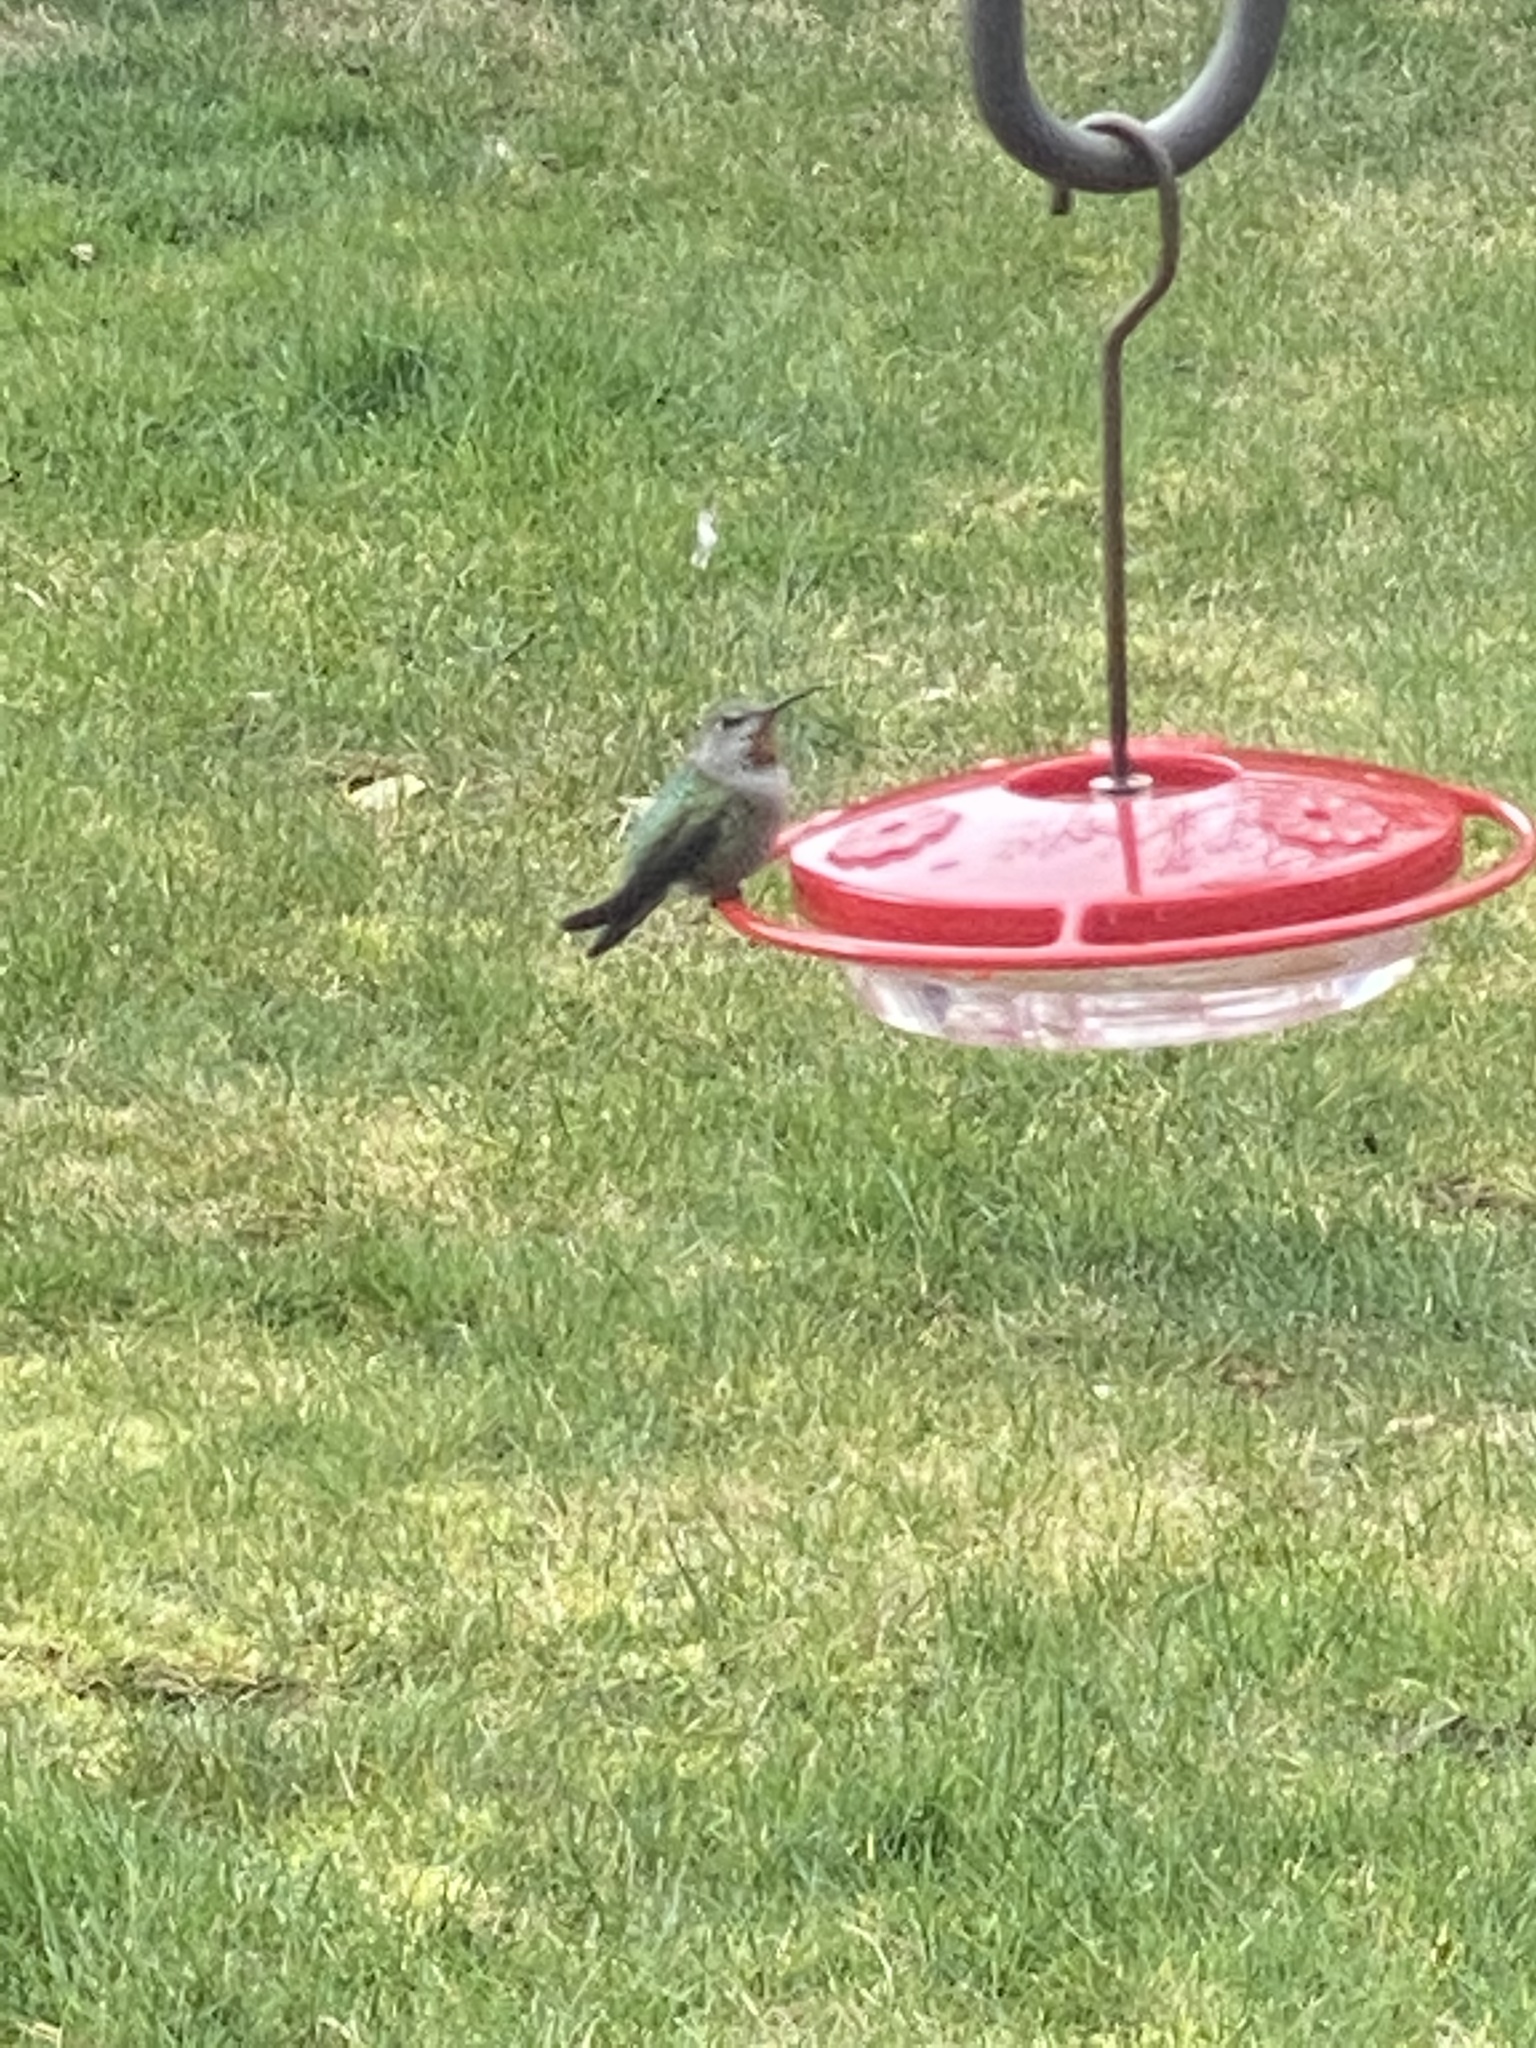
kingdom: Animalia
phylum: Chordata
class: Aves
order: Apodiformes
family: Trochilidae
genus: Calypte
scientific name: Calypte anna
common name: Anna's hummingbird
